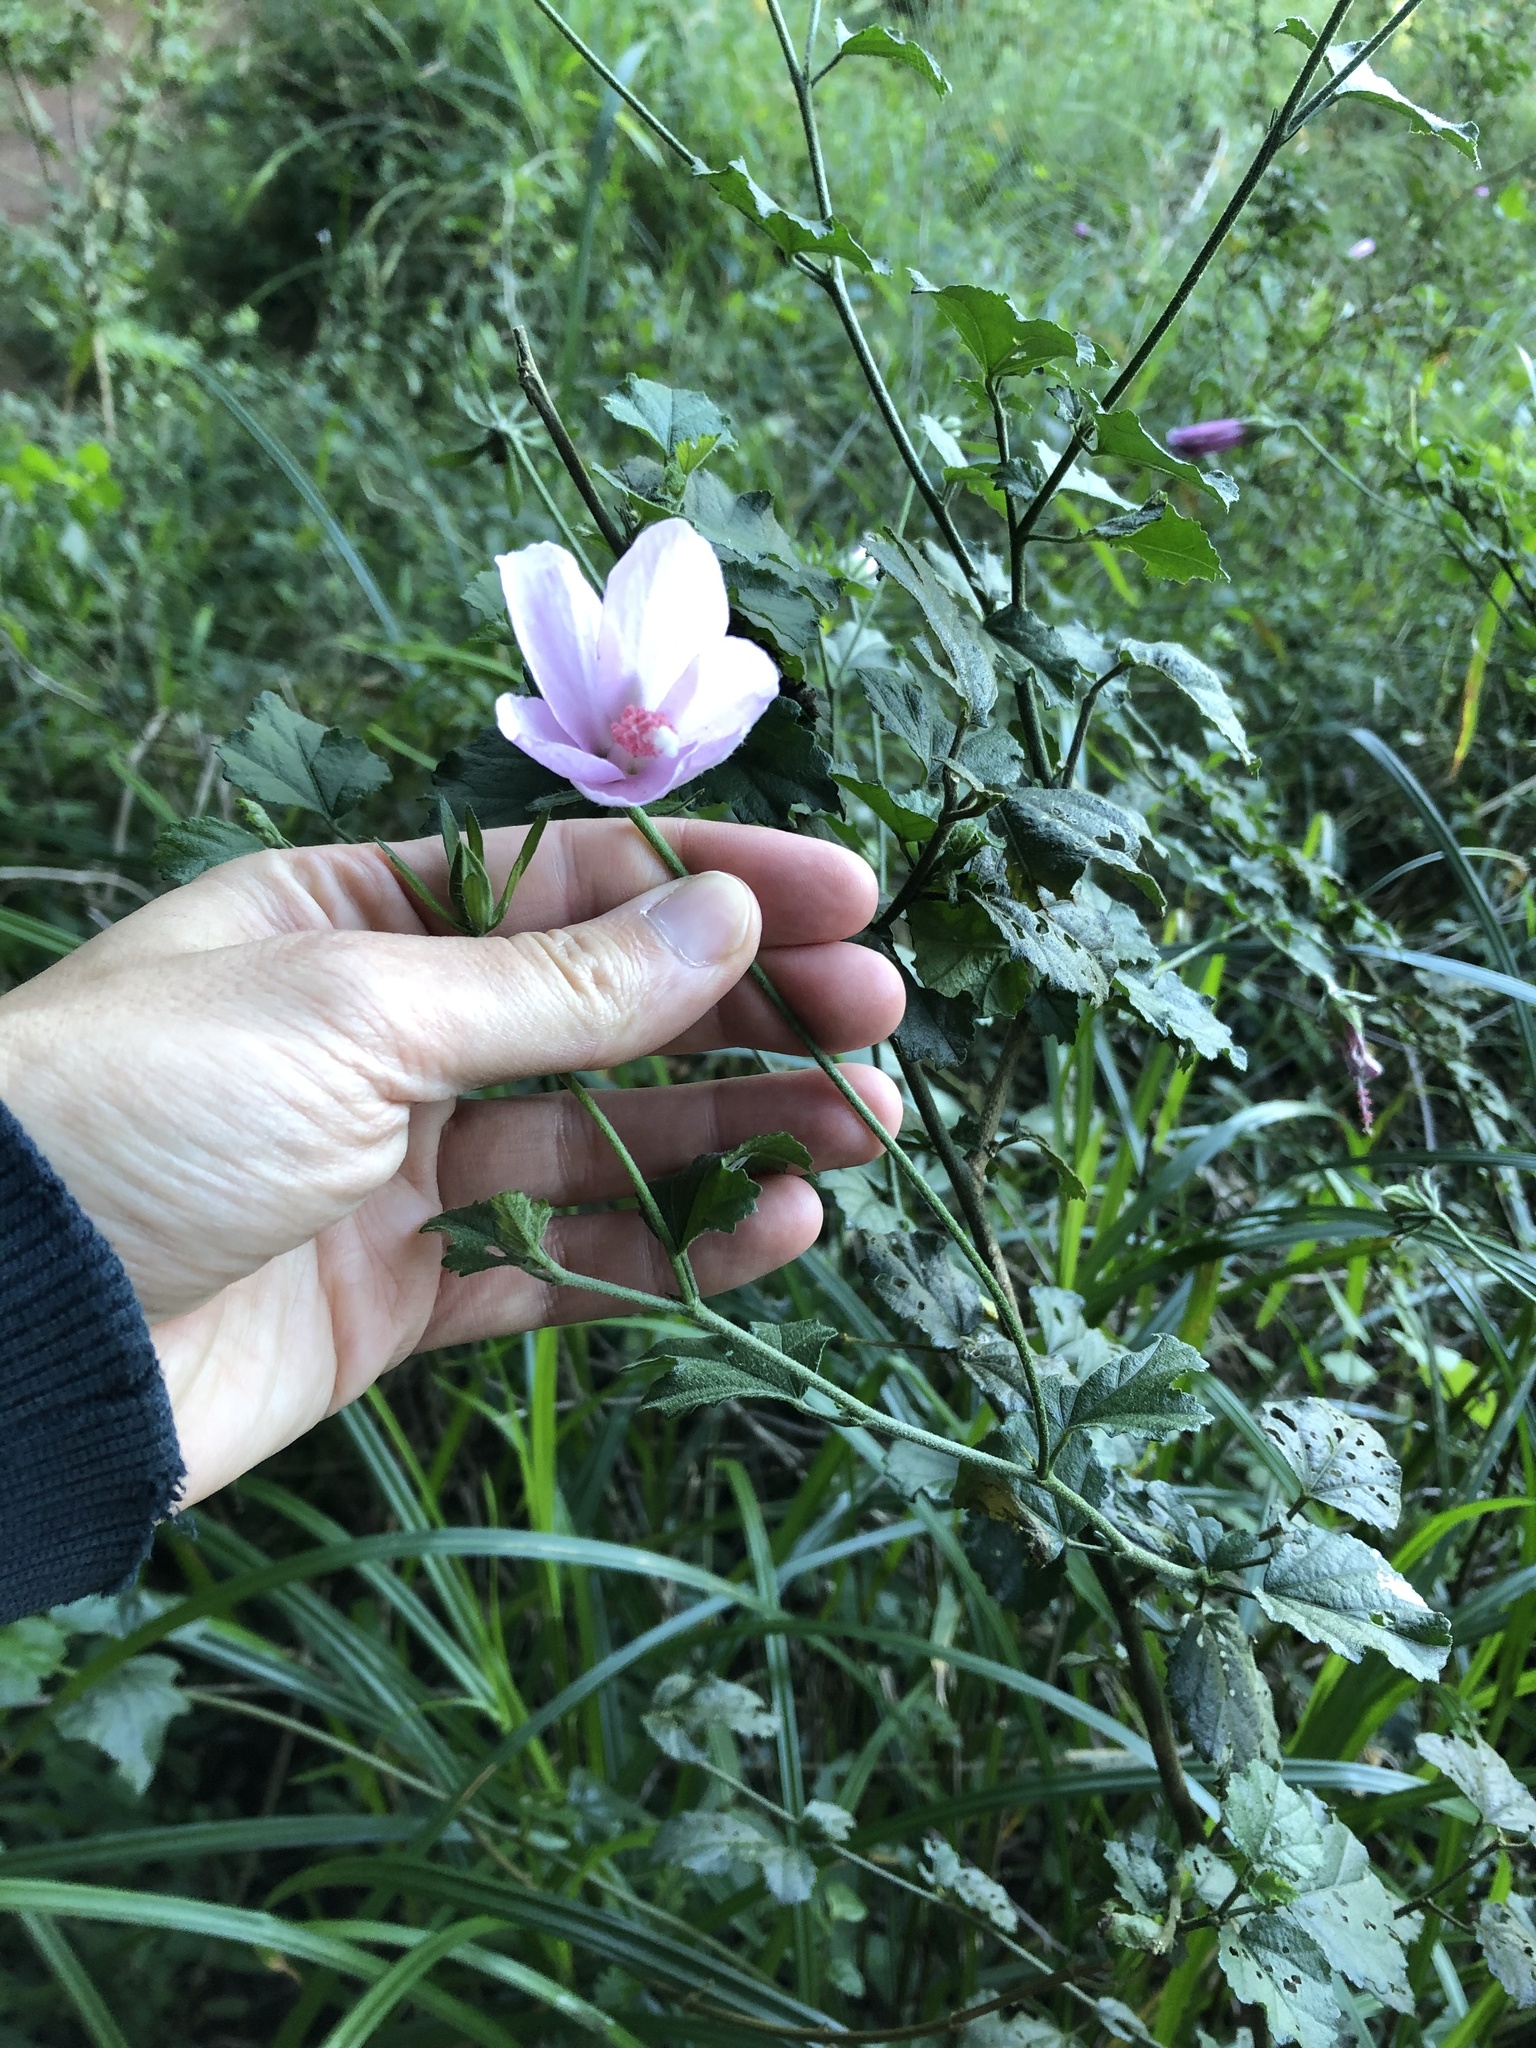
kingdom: Plantae
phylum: Tracheophyta
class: Magnoliopsida
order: Malvales
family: Malvaceae
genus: Hibiscus
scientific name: Hibiscus pedunculatus
